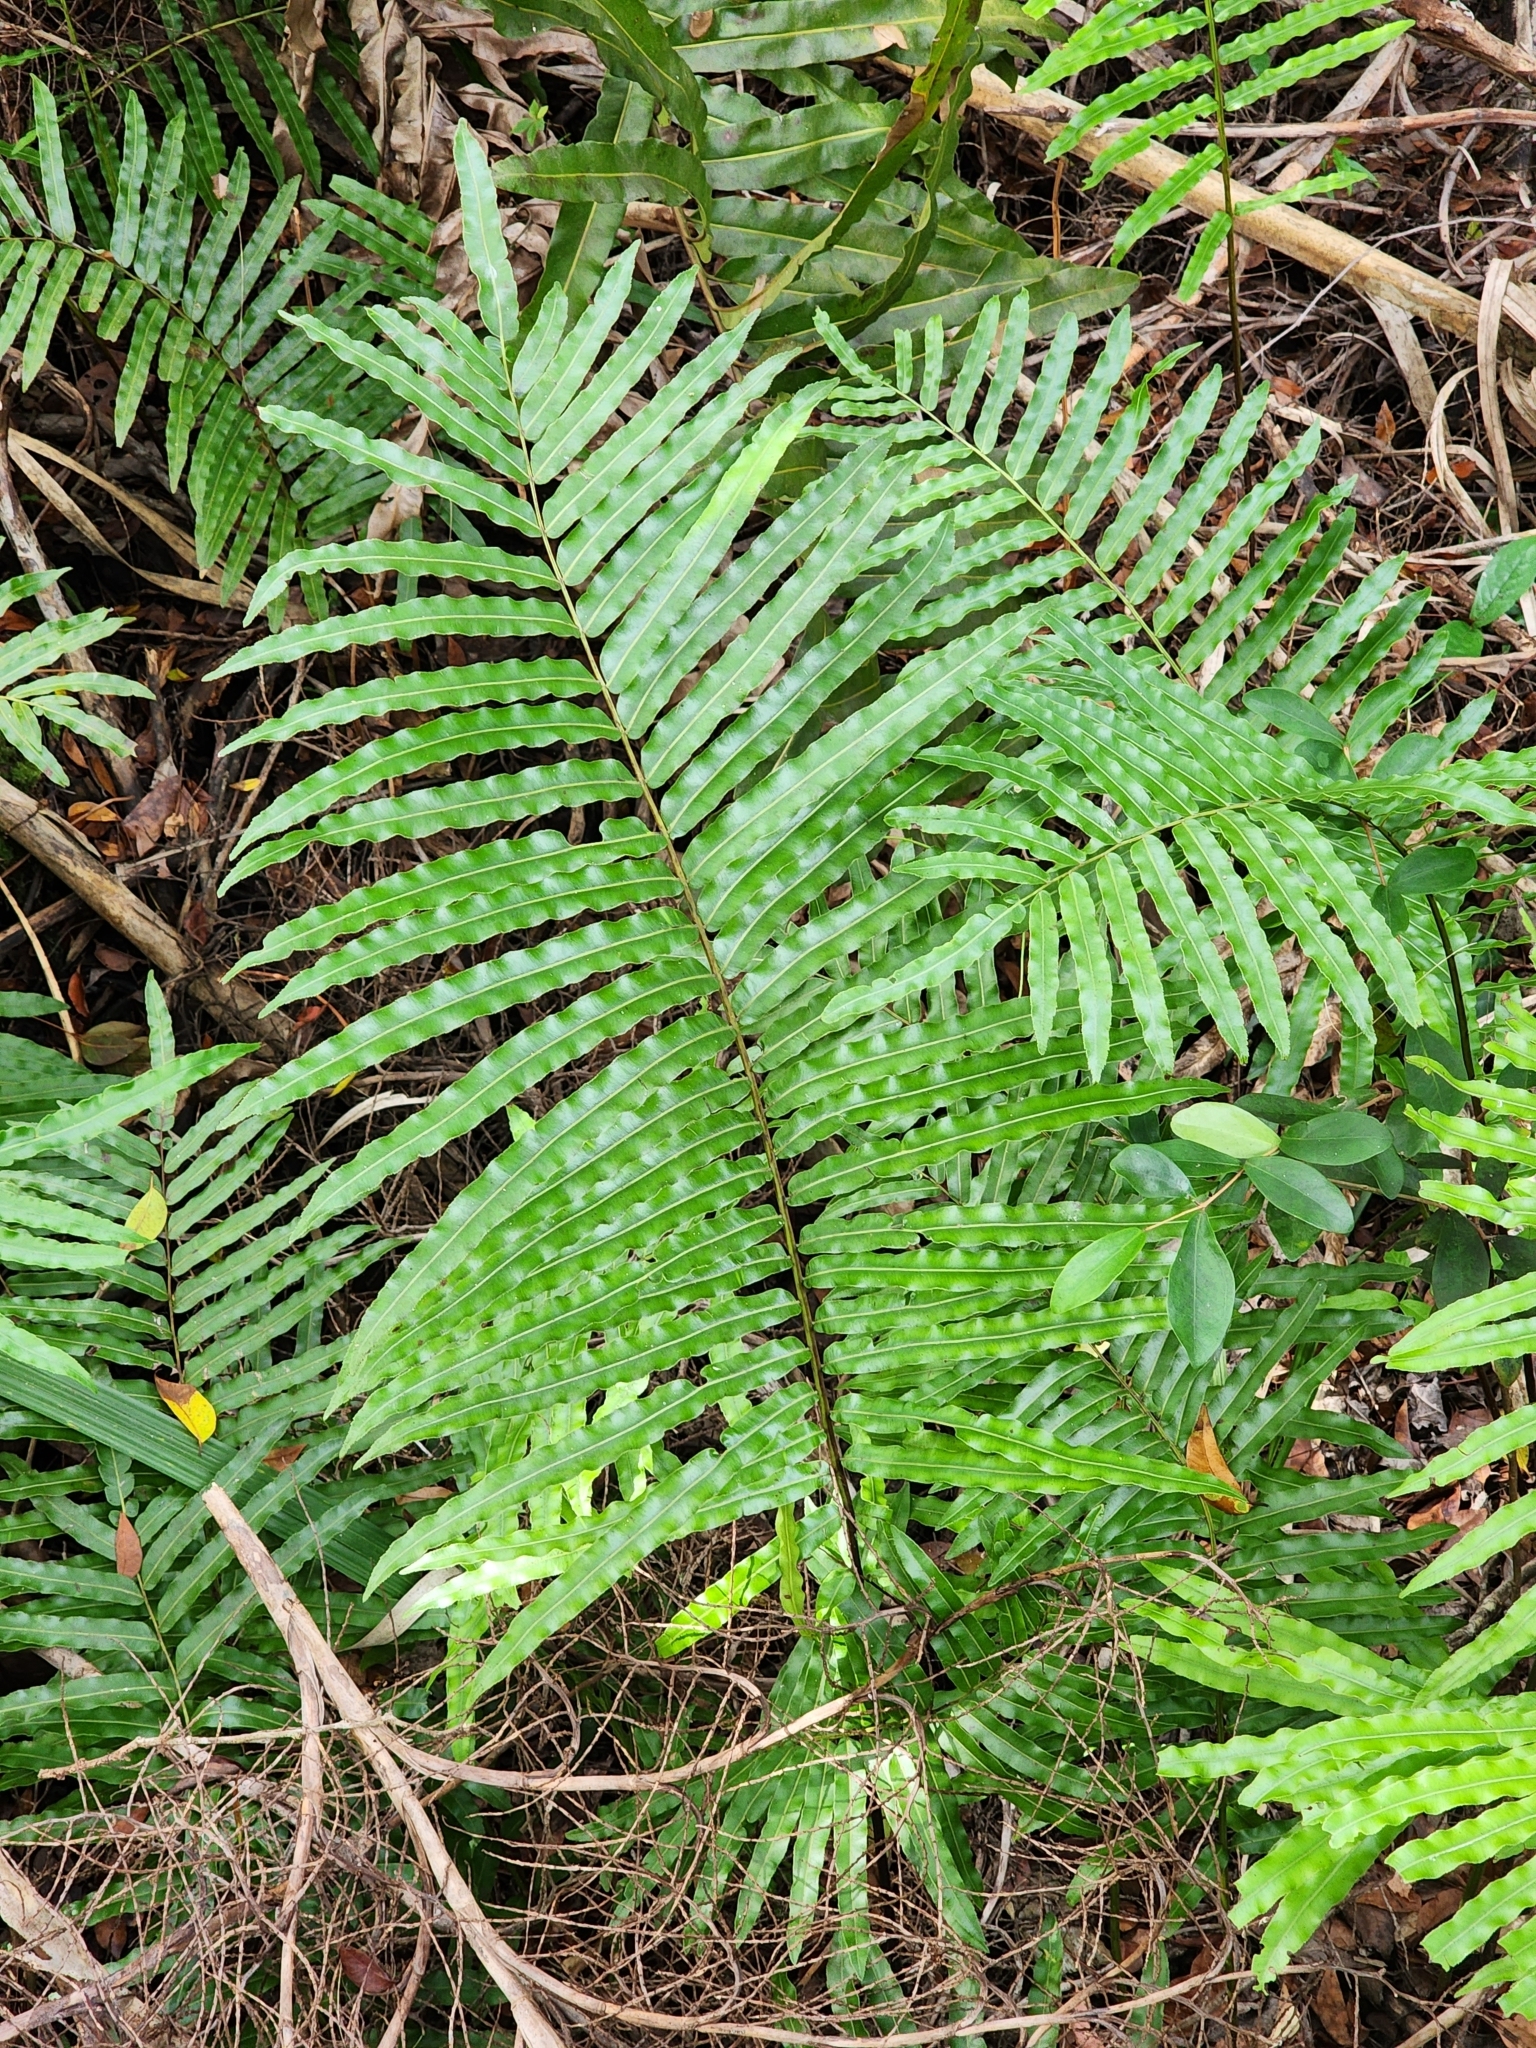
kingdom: Plantae
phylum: Tracheophyta
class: Polypodiopsida
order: Polypodiales
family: Blechnaceae
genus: Telmatoblechnum
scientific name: Telmatoblechnum serrulatum
